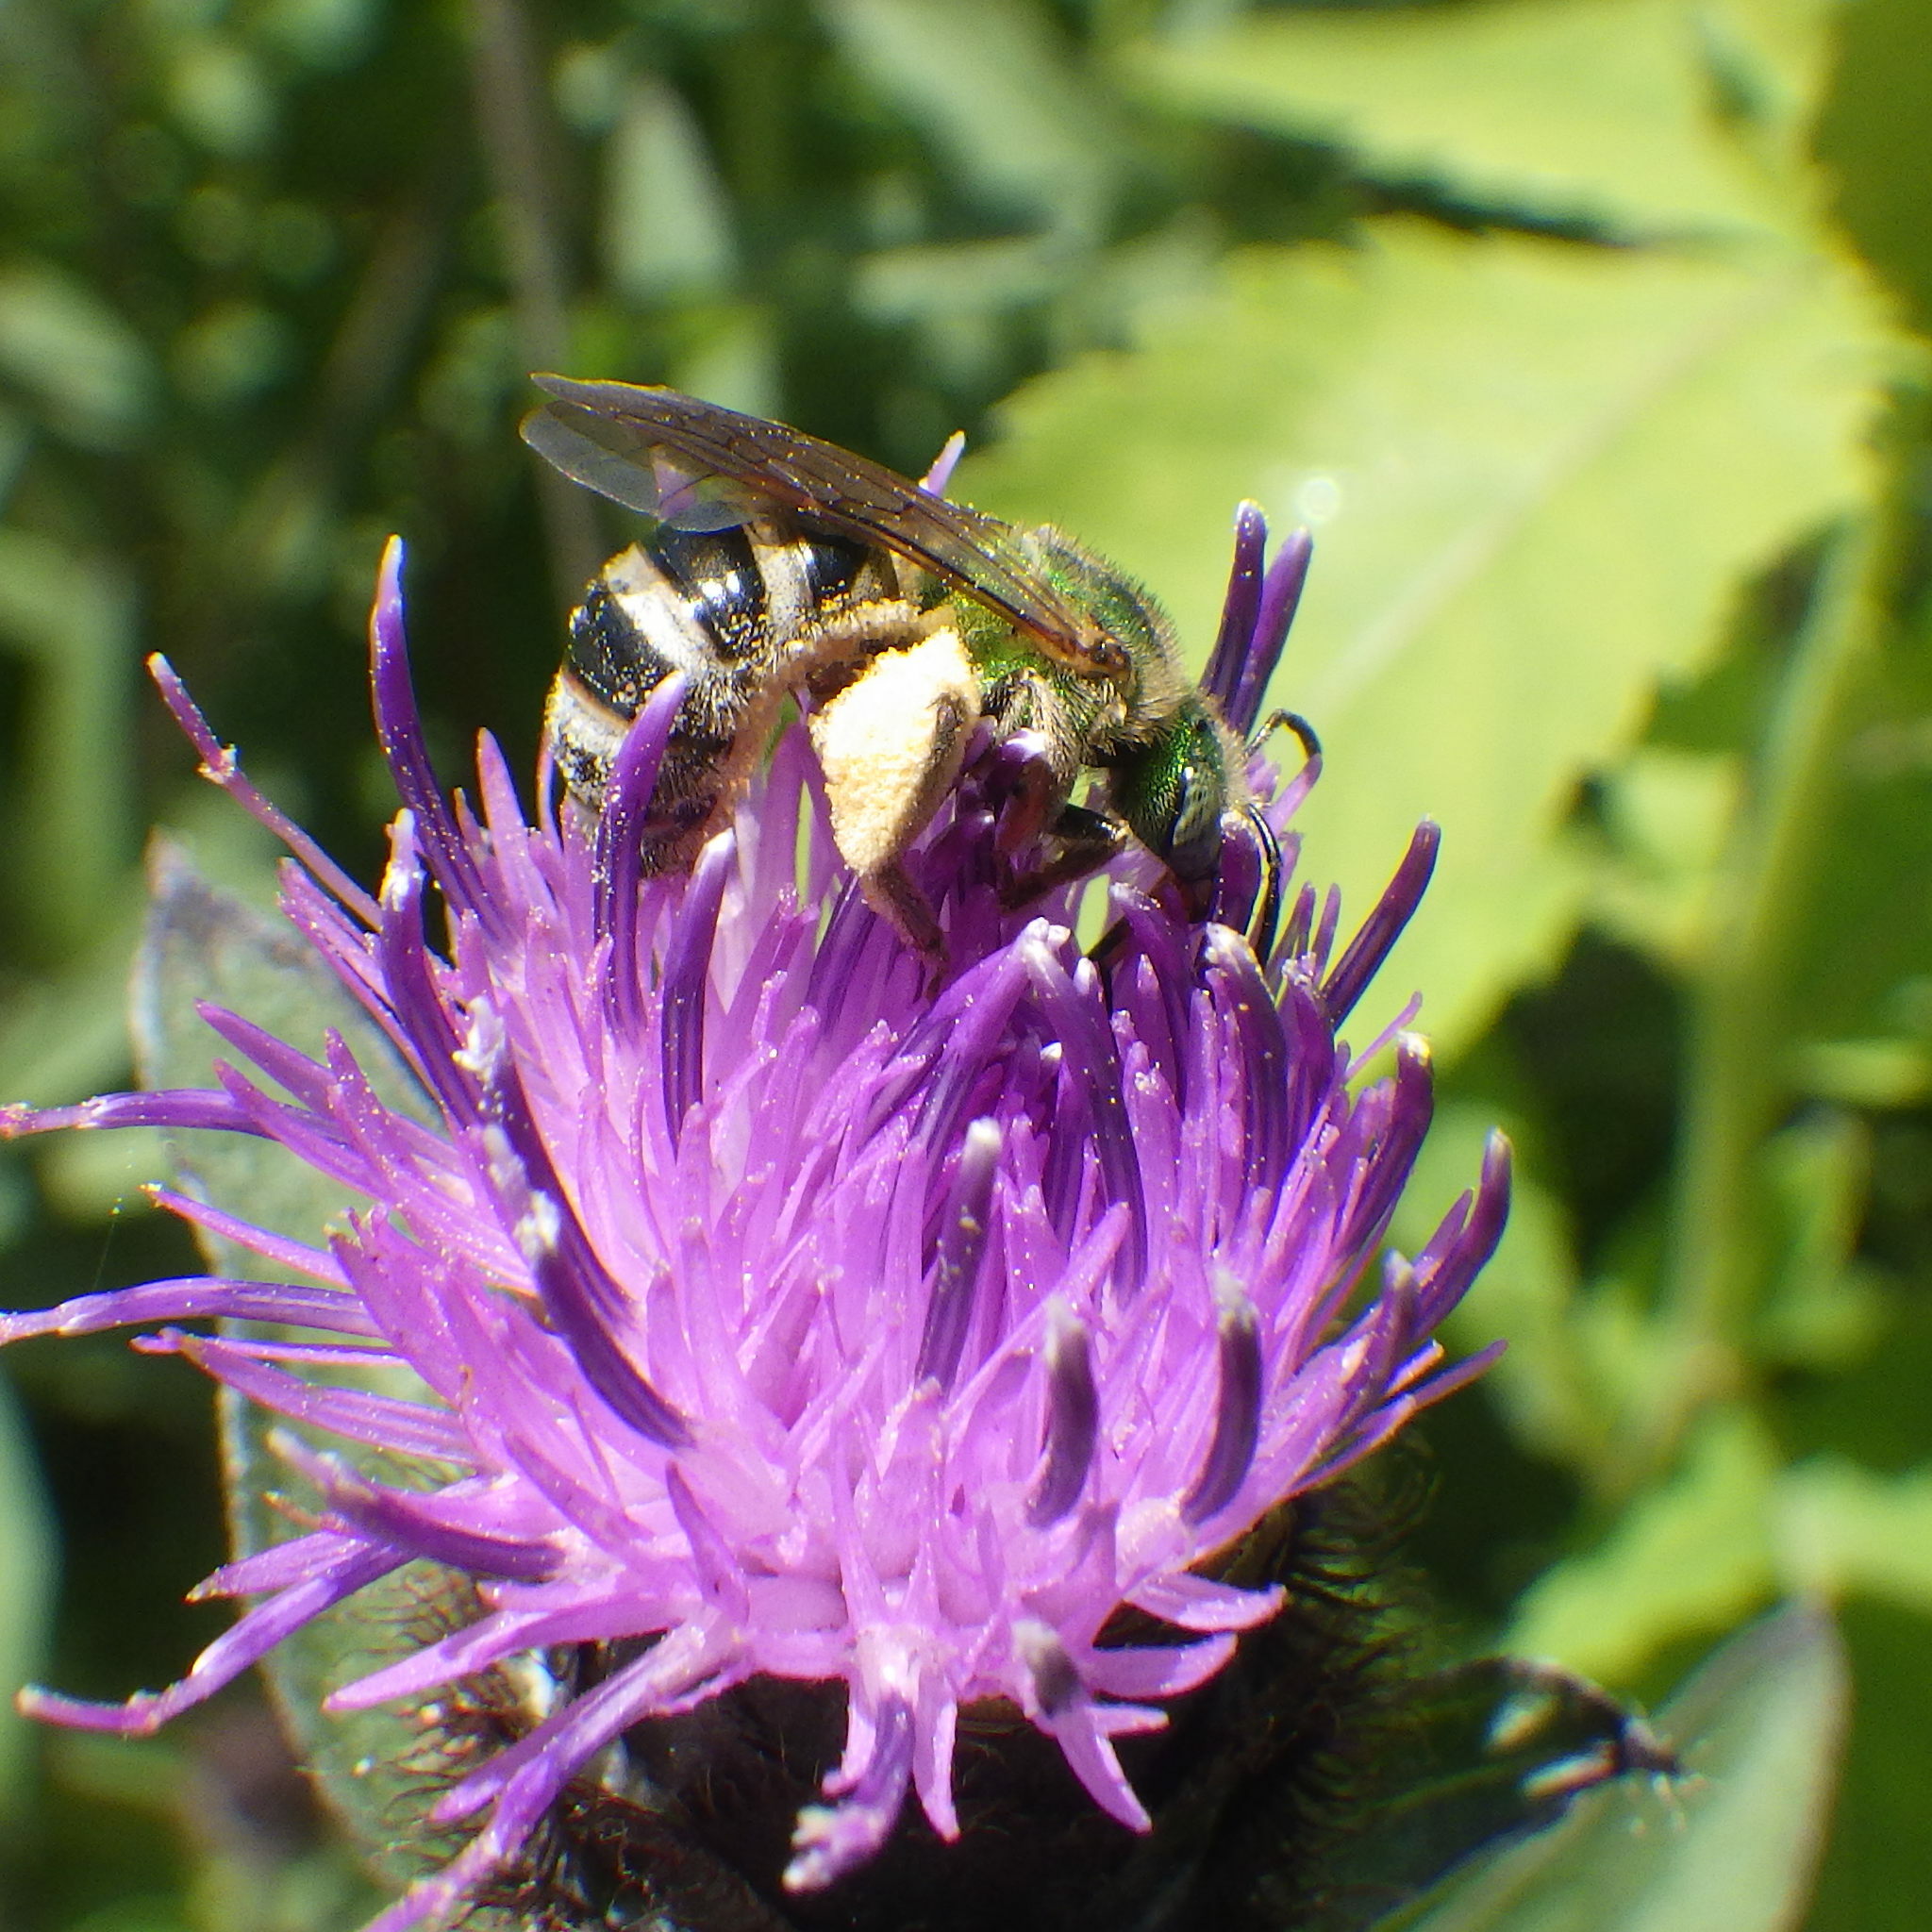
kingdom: Animalia
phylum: Arthropoda
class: Insecta
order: Hymenoptera
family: Halictidae
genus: Agapostemon
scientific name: Agapostemon virescens
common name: Bicolored striped sweat bee
